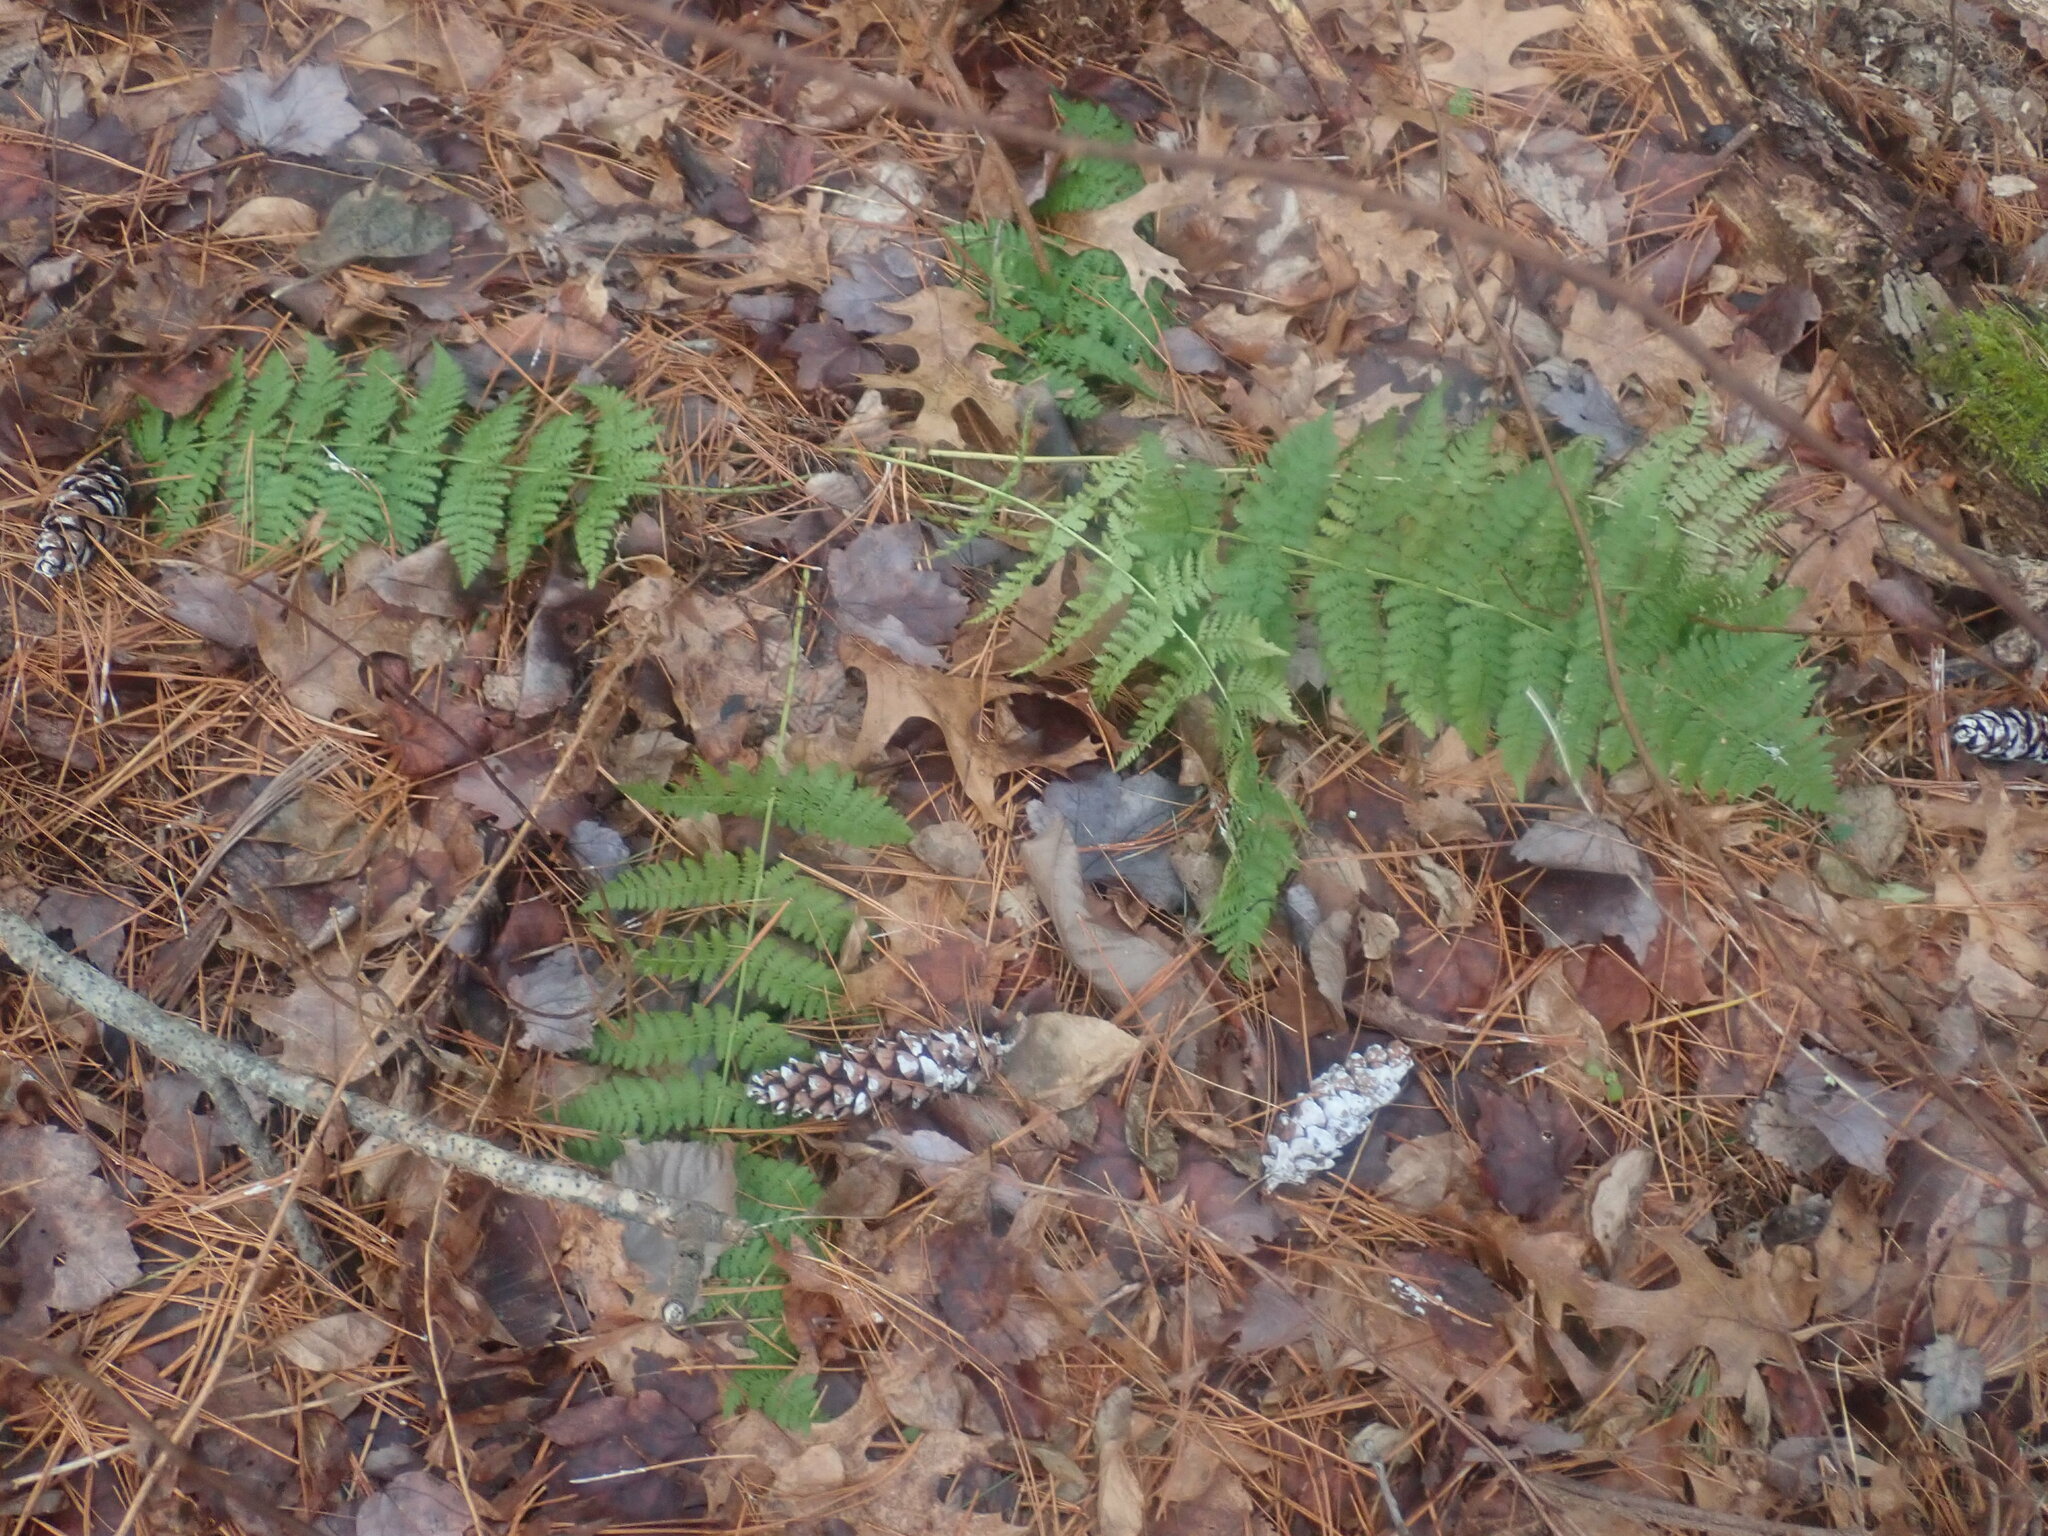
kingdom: Plantae
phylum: Tracheophyta
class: Polypodiopsida
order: Polypodiales
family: Dryopteridaceae
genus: Dryopteris
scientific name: Dryopteris intermedia
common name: Evergreen wood fern
